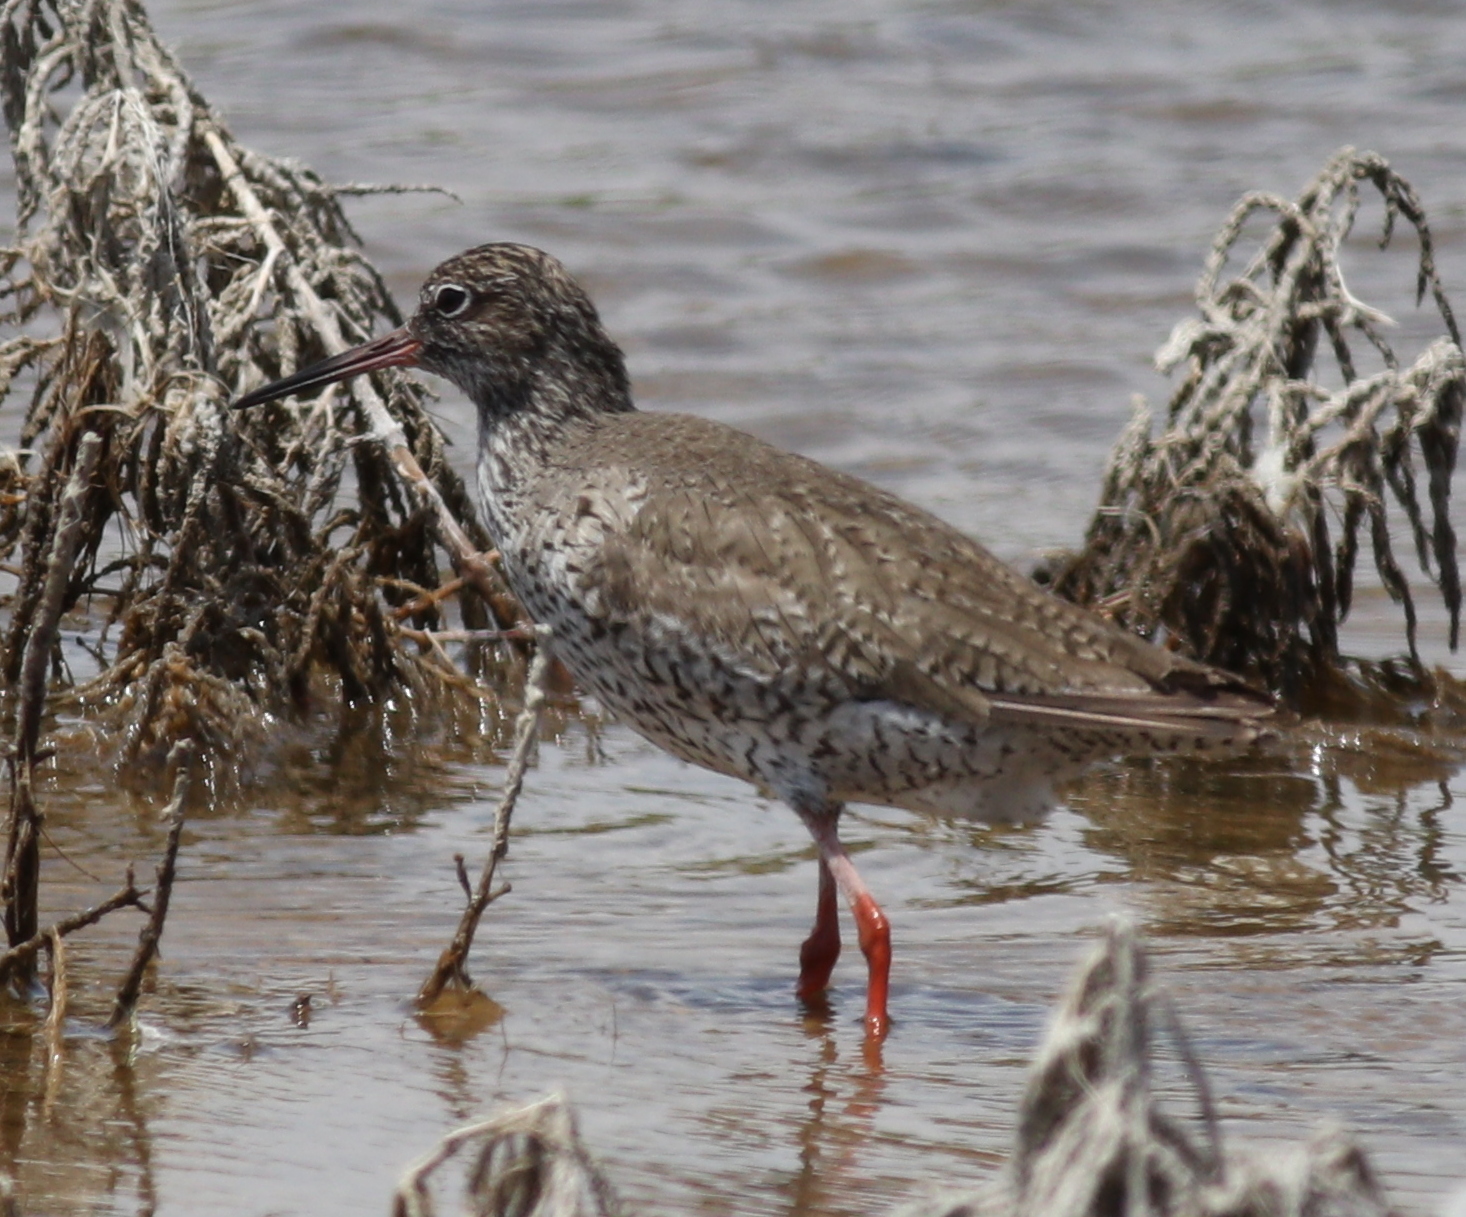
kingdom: Animalia
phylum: Chordata
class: Aves
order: Charadriiformes
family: Scolopacidae
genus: Tringa
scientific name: Tringa totanus
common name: Common redshank
